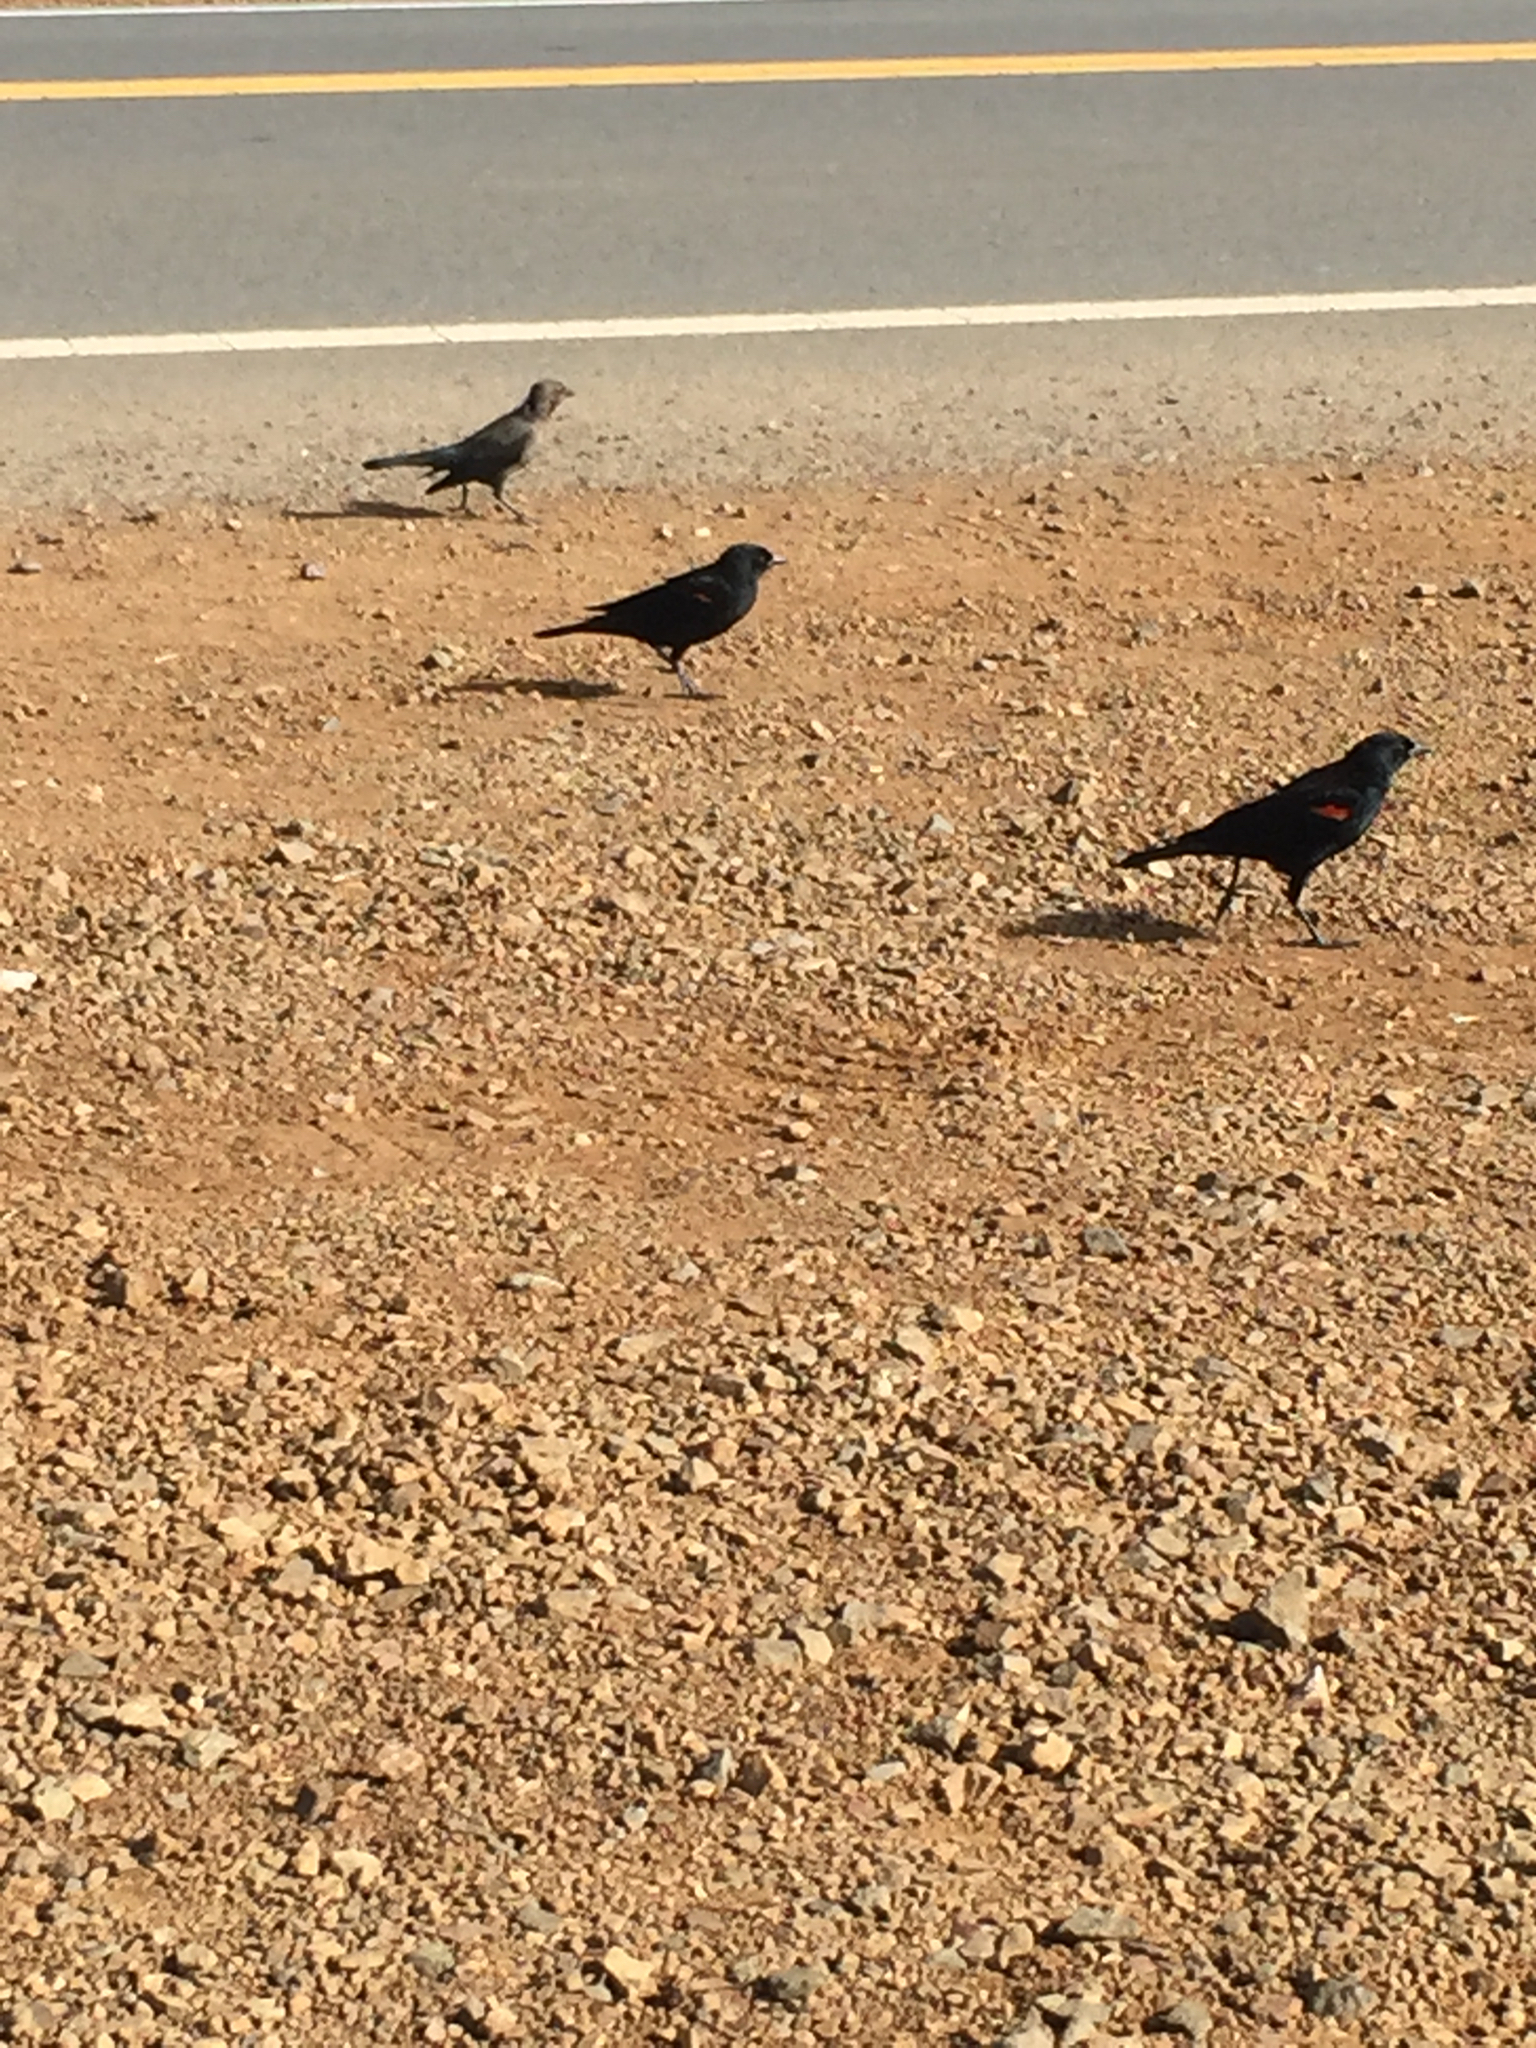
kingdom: Animalia
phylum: Chordata
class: Aves
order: Passeriformes
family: Icteridae
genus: Agelaius
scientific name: Agelaius phoeniceus
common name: Red-winged blackbird
